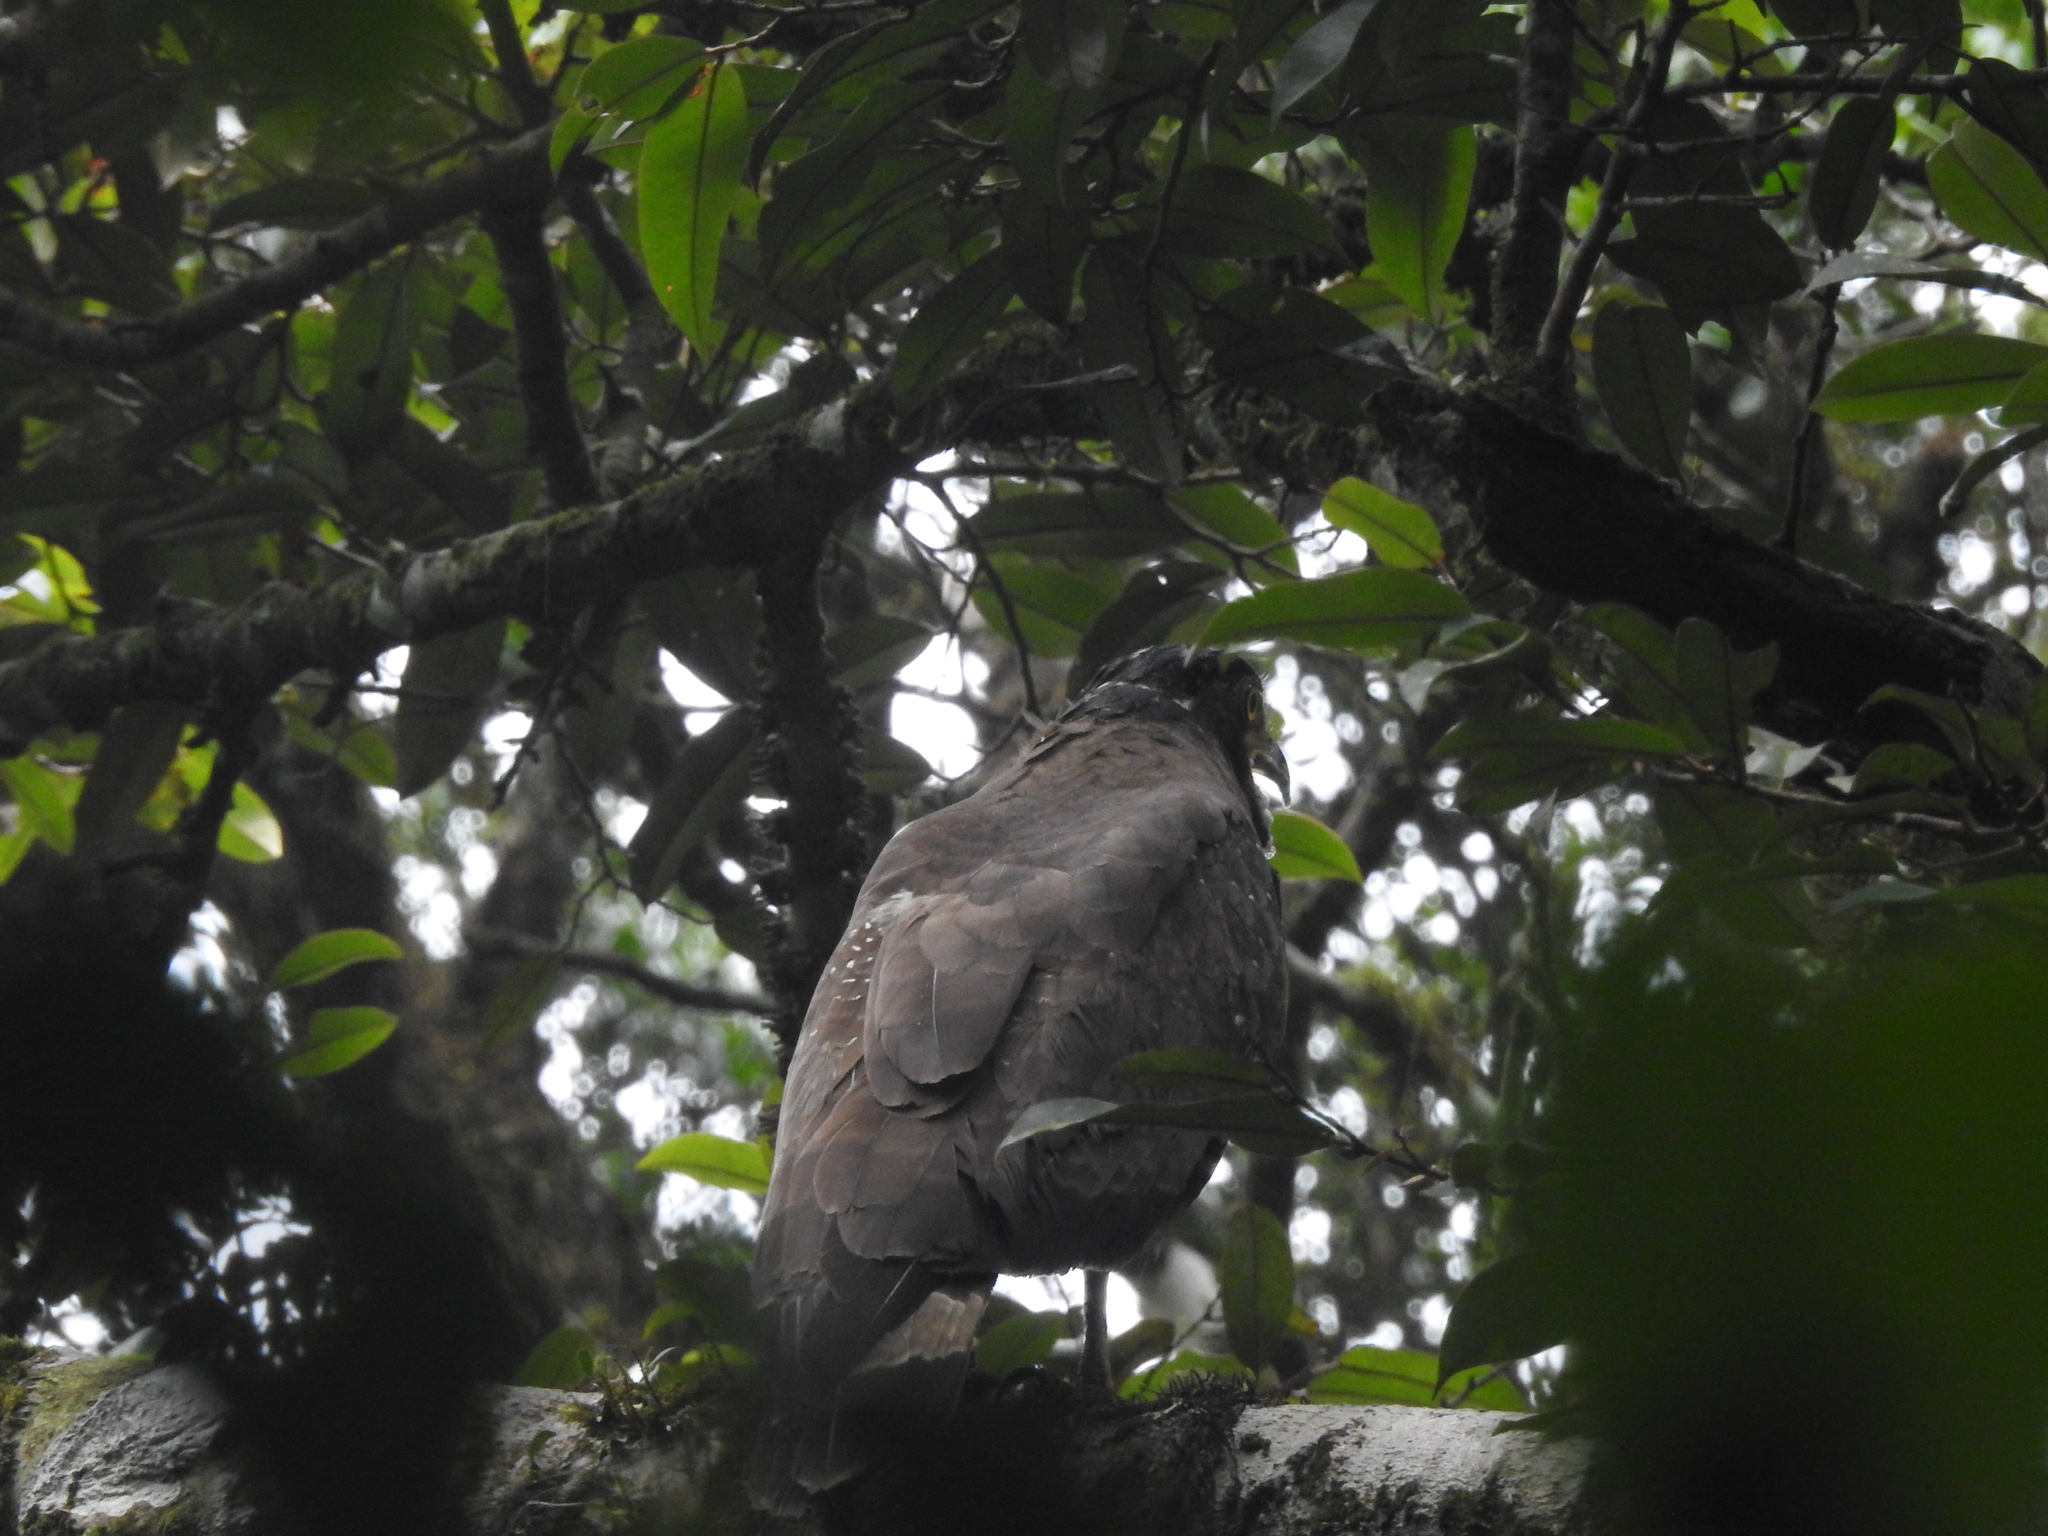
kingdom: Animalia
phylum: Chordata
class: Aves
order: Accipitriformes
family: Accipitridae
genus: Spilornis
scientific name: Spilornis cheela
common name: Crested serpent eagle
